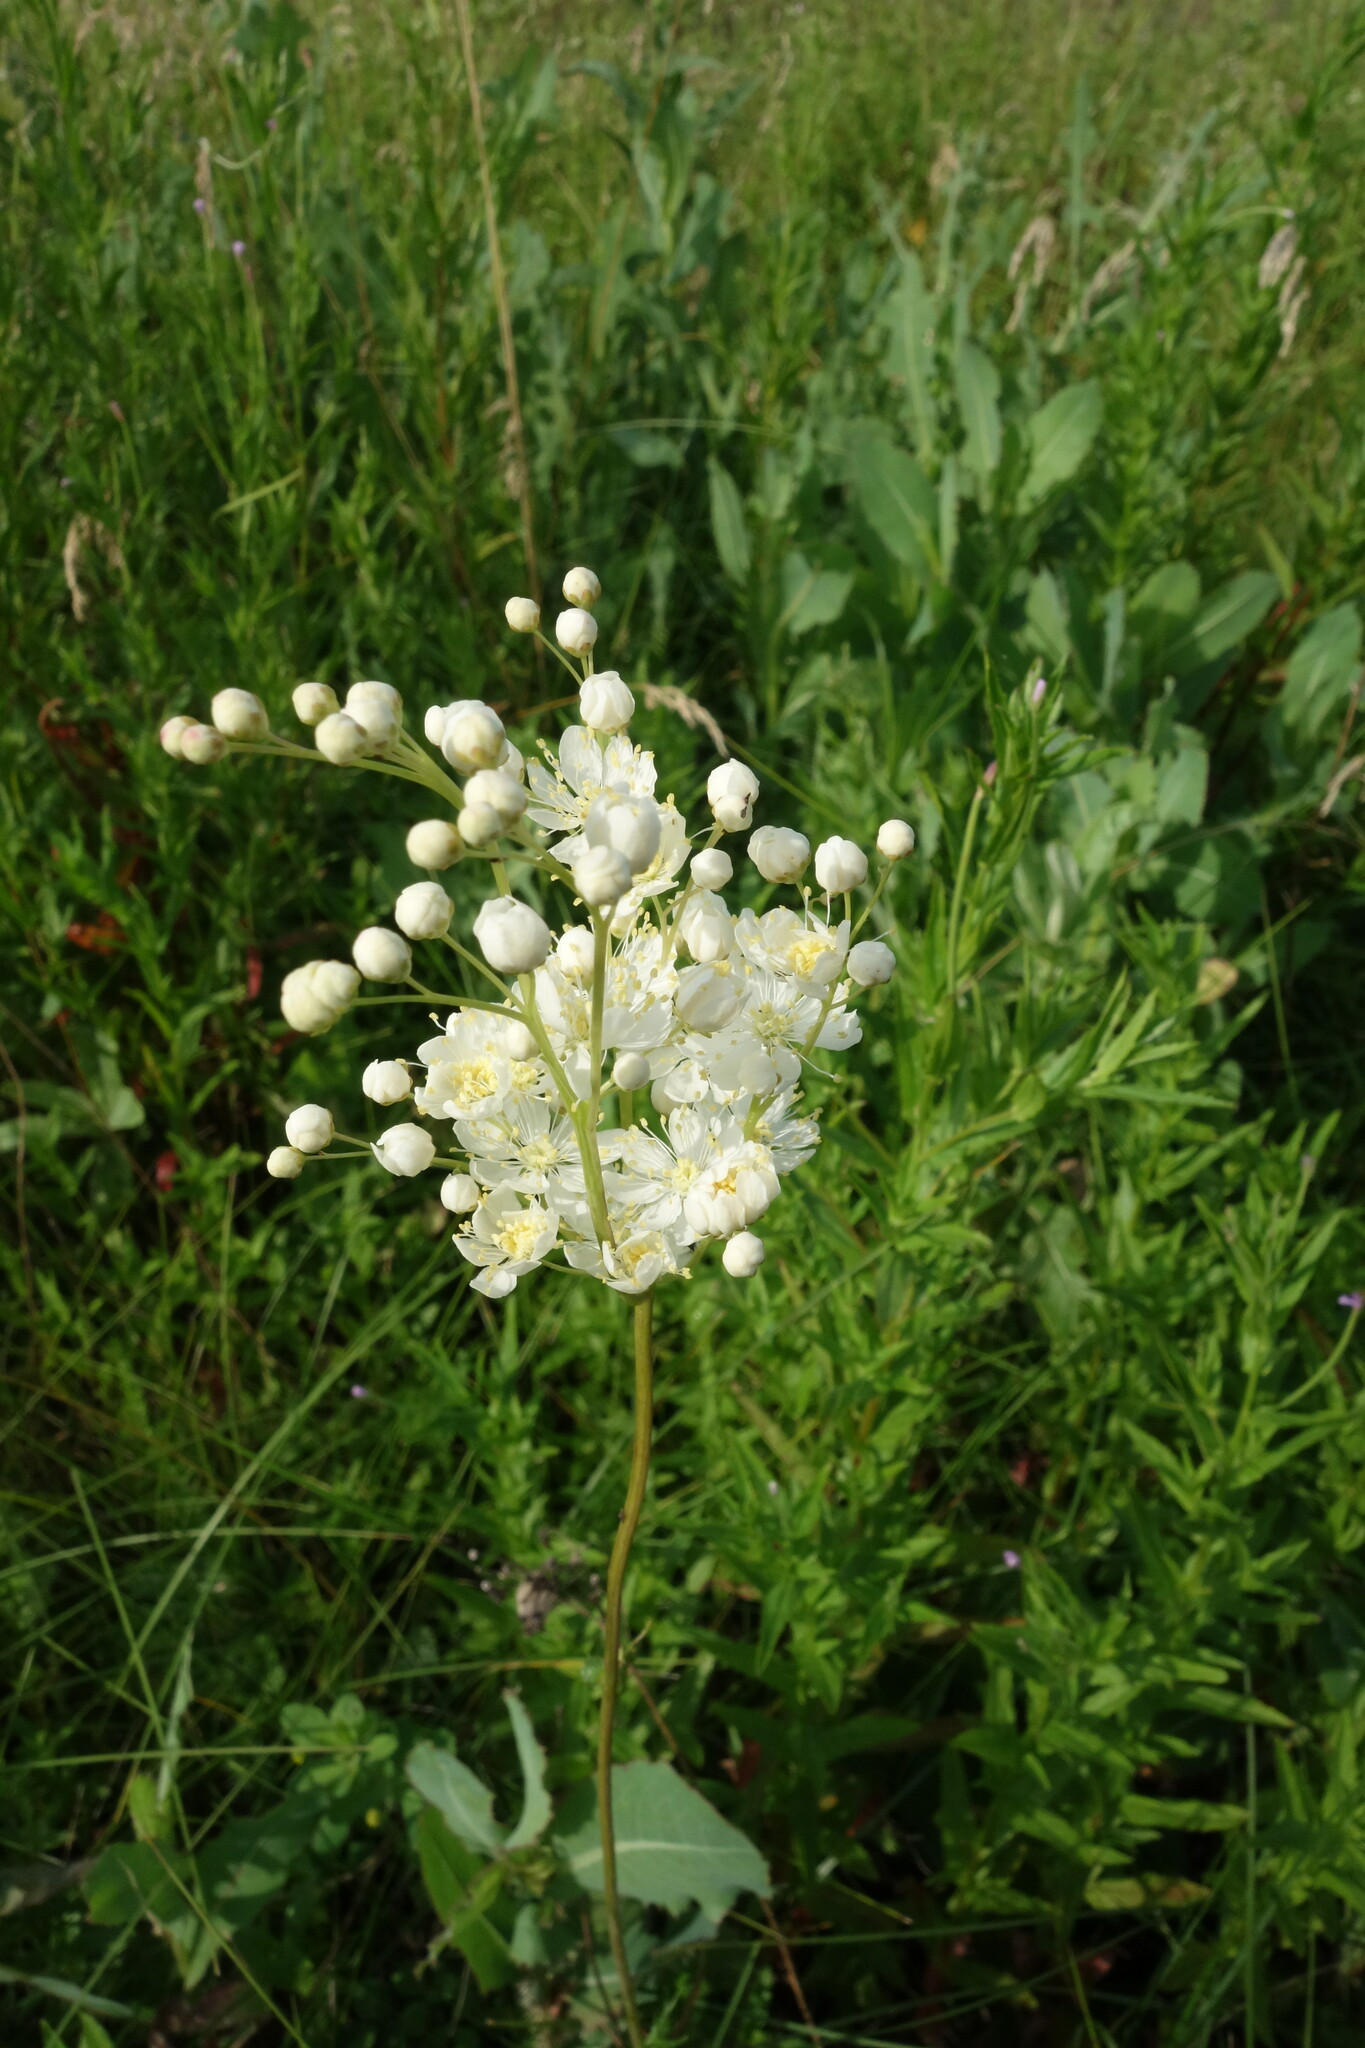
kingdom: Plantae
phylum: Tracheophyta
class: Magnoliopsida
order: Rosales
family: Rosaceae
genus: Filipendula
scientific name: Filipendula vulgaris
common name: Dropwort
